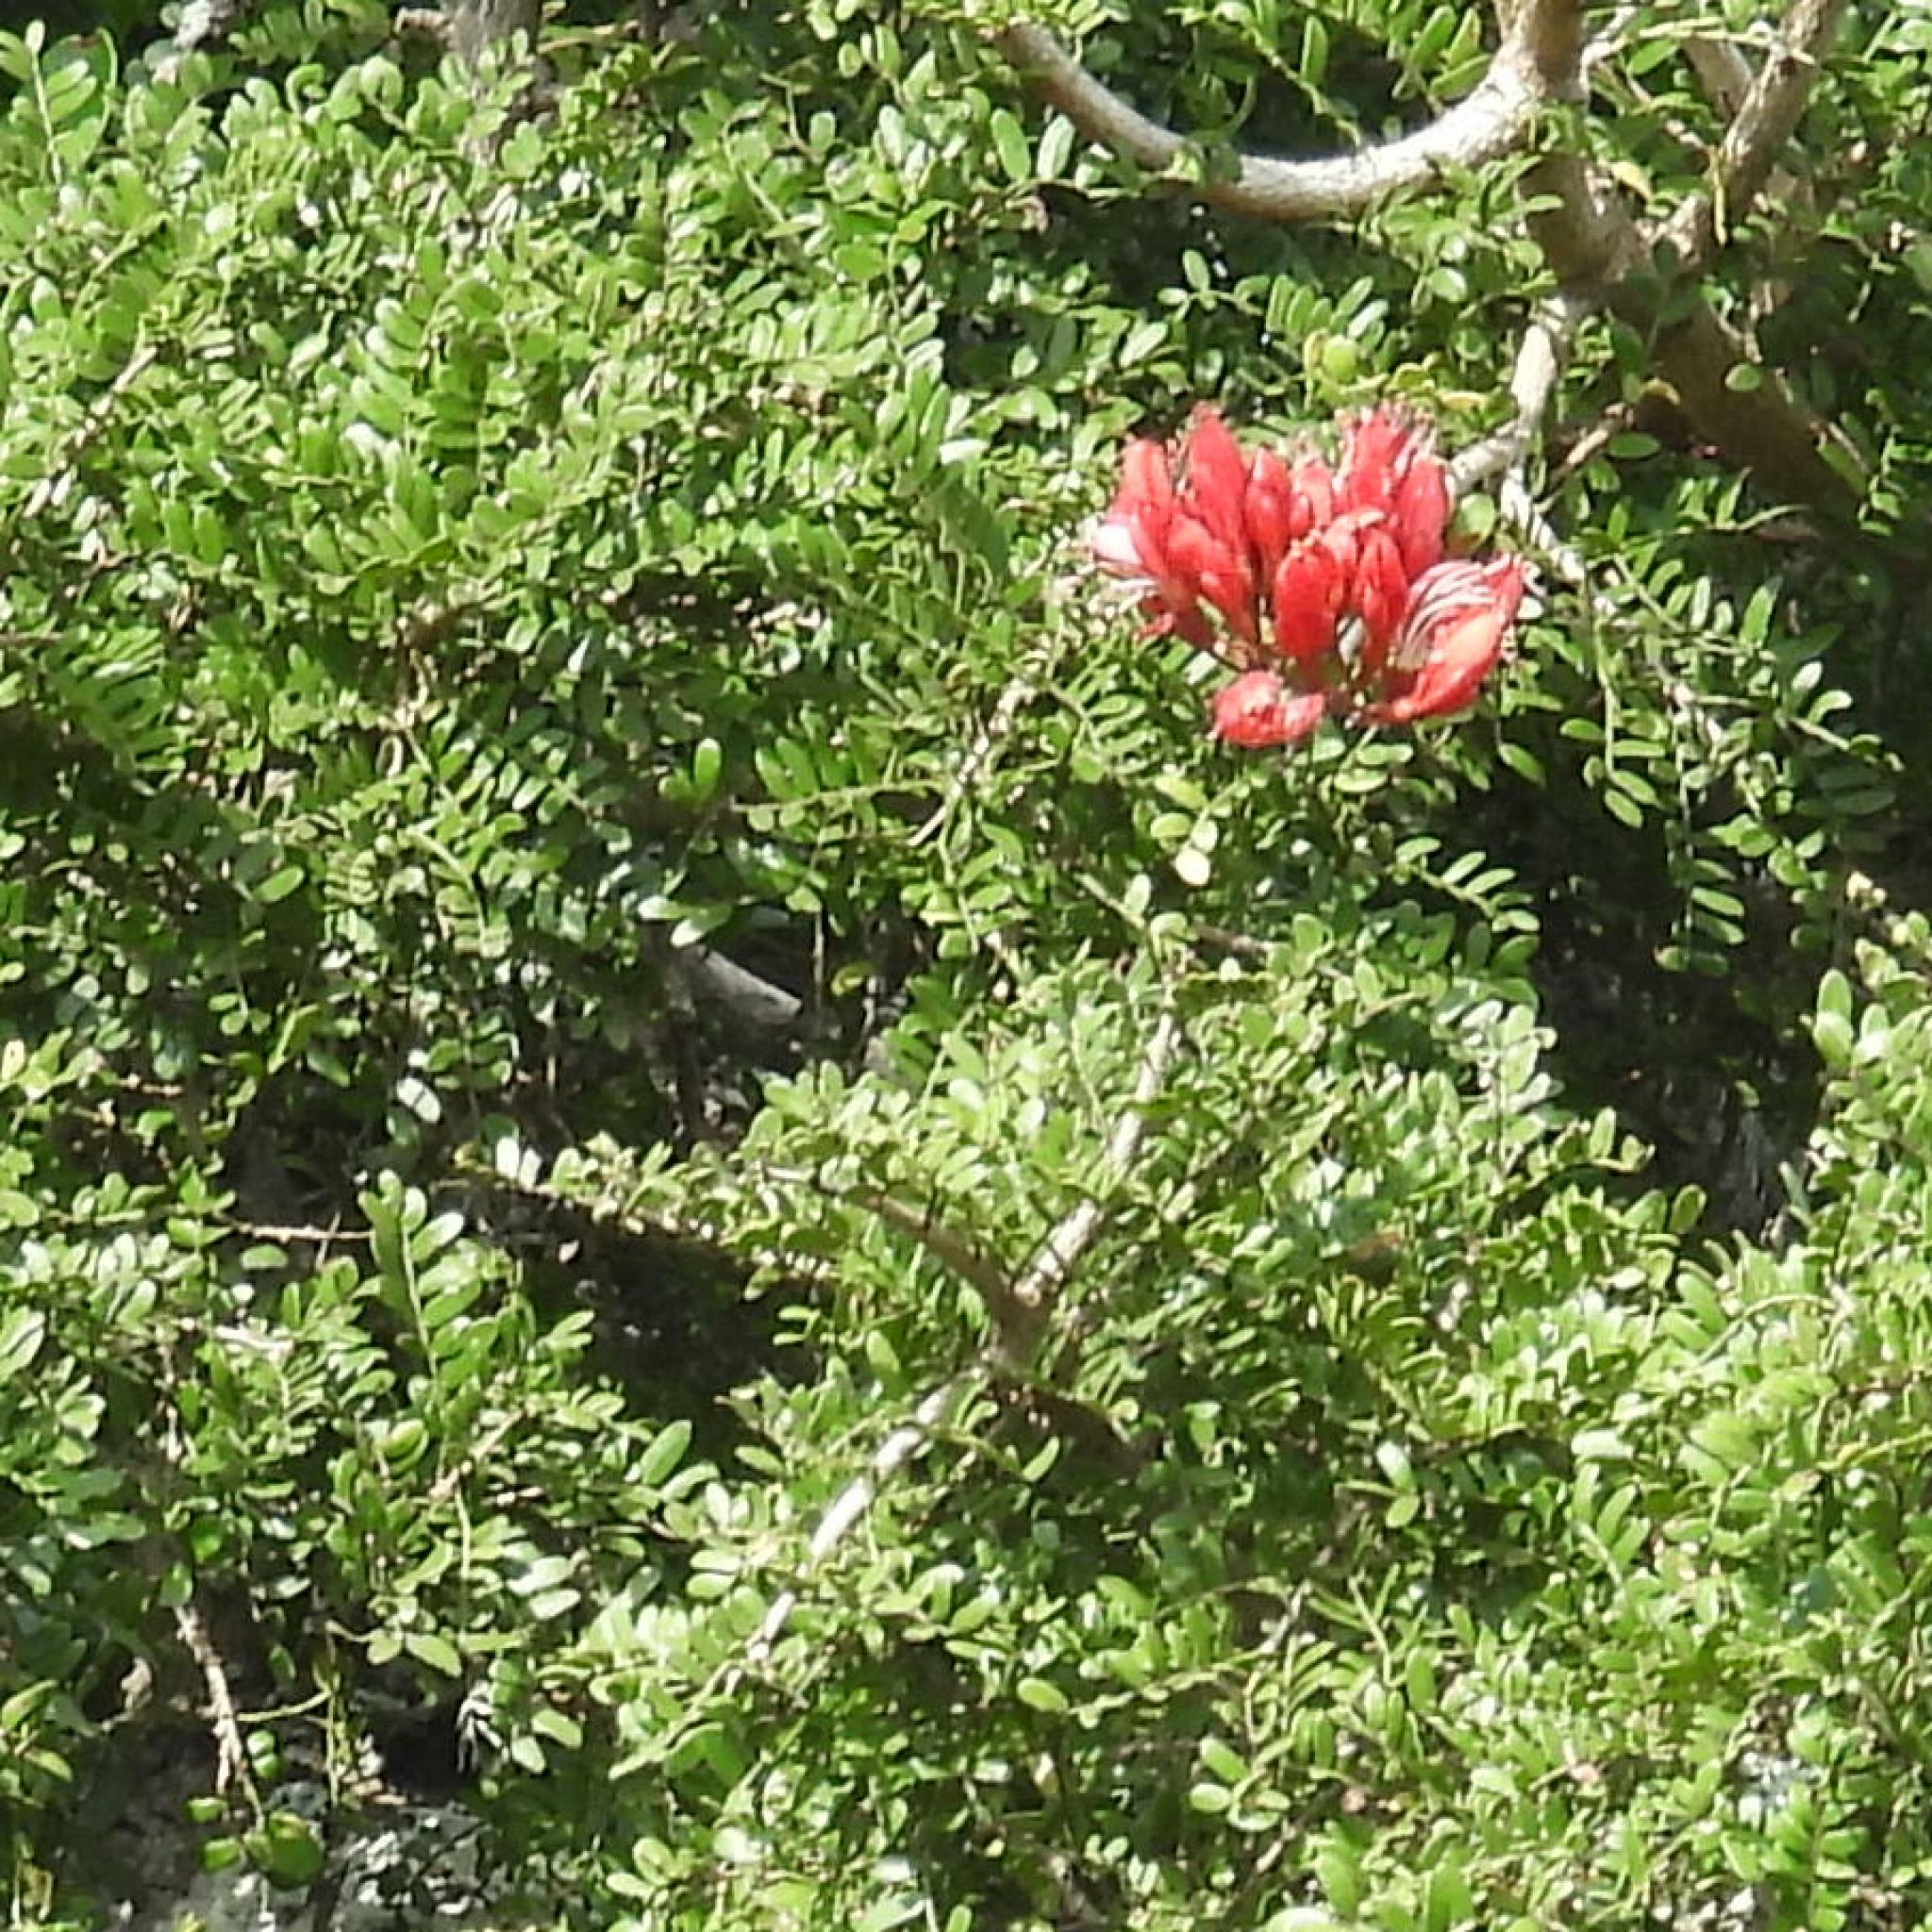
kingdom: Plantae
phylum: Tracheophyta
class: Magnoliopsida
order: Fabales
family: Fabaceae
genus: Schotia
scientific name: Schotia afra
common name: Hottentot's bean
